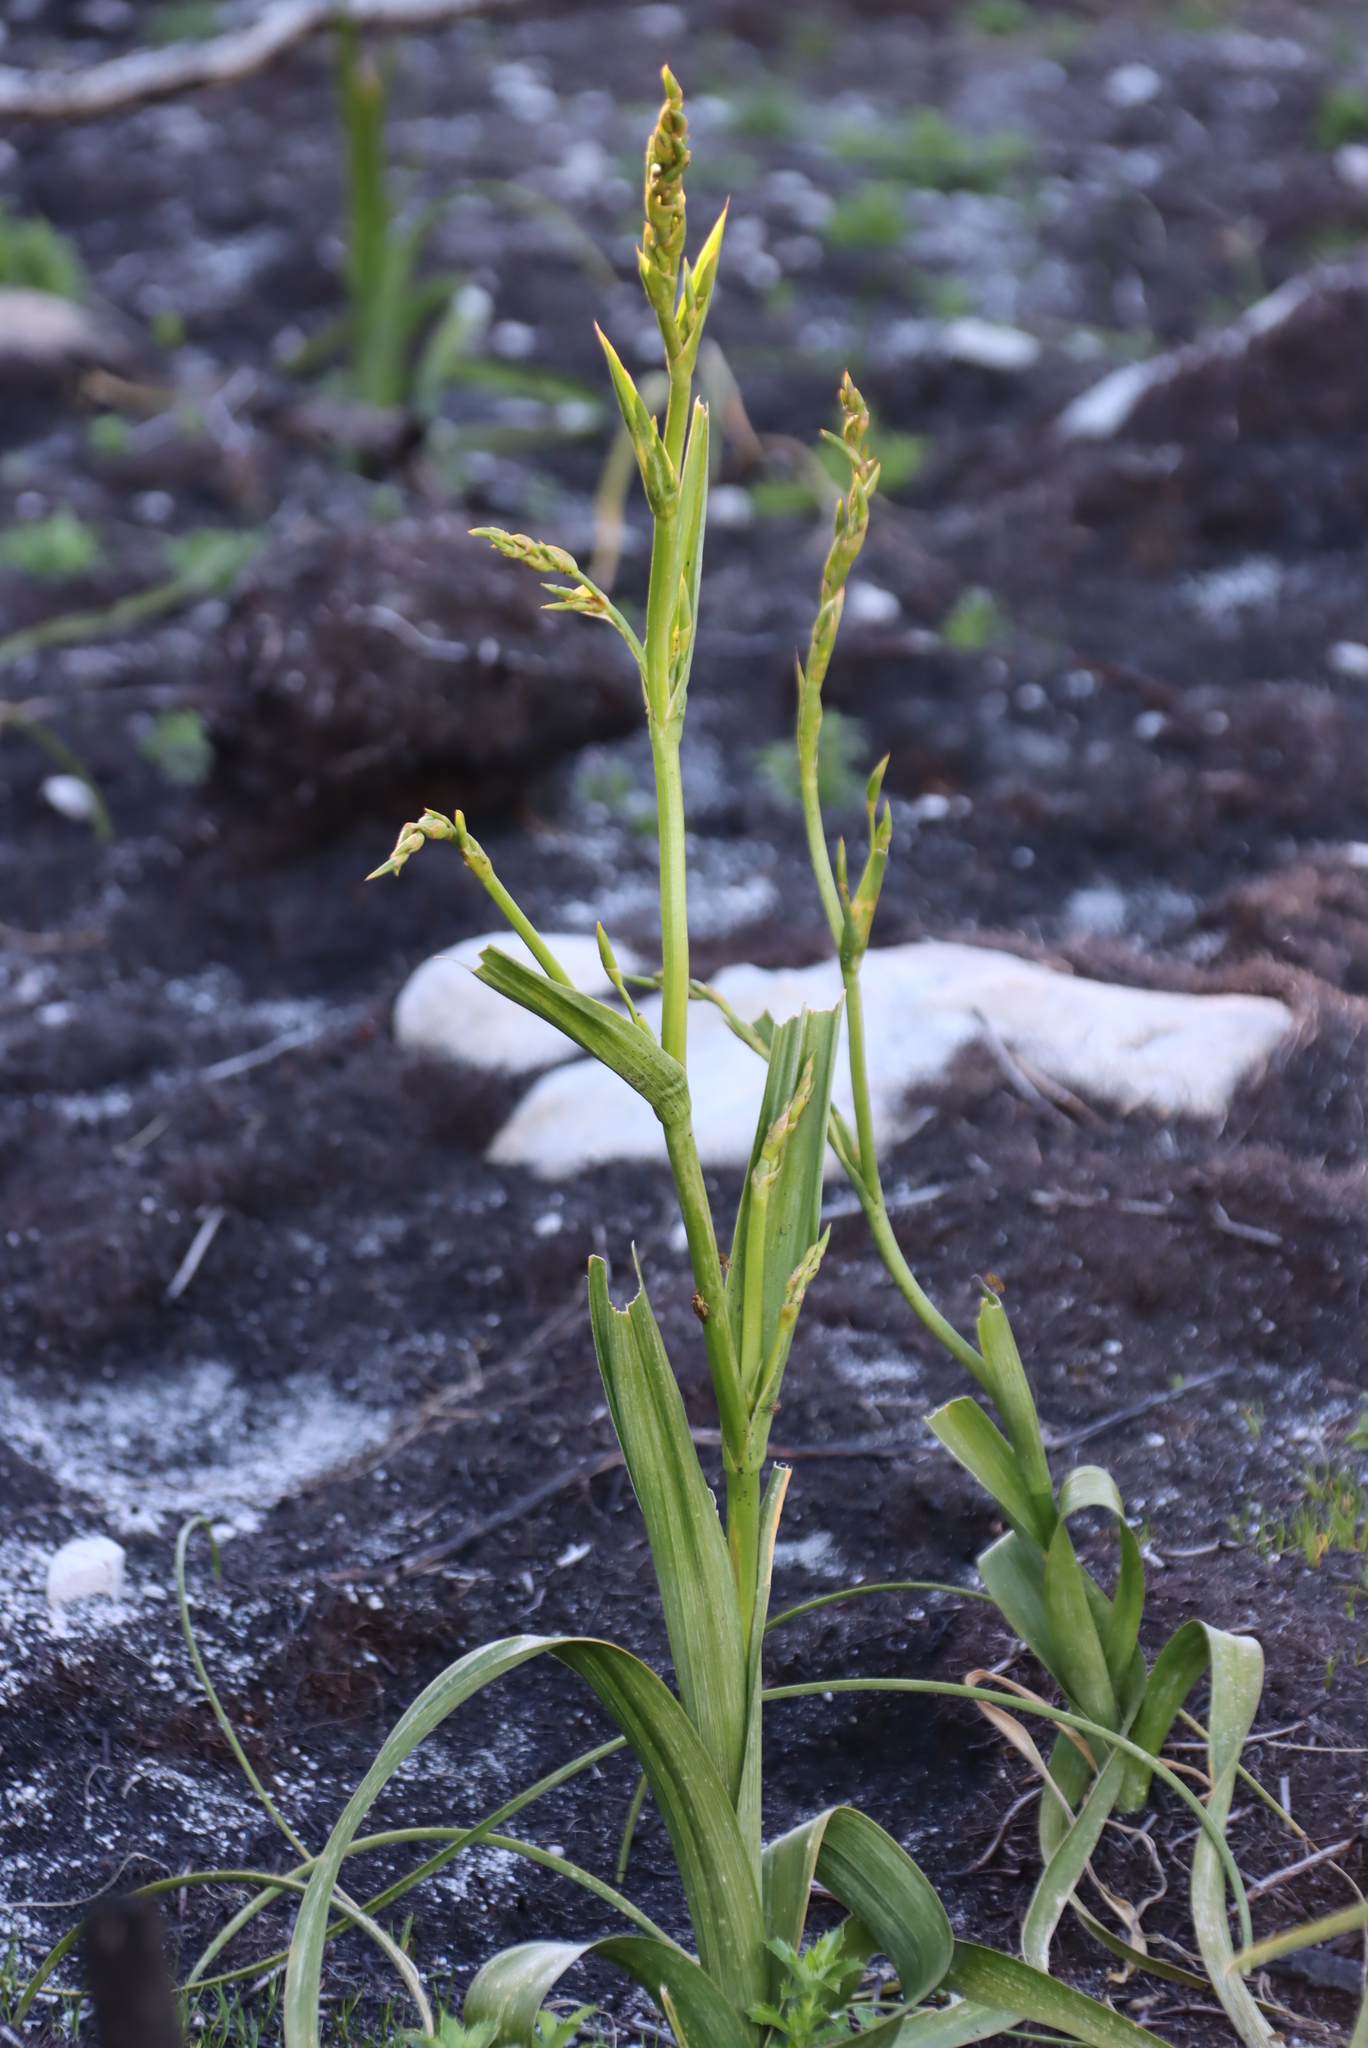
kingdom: Plantae
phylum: Tracheophyta
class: Liliopsida
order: Asparagales
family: Iridaceae
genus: Moraea
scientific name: Moraea ramosissima
